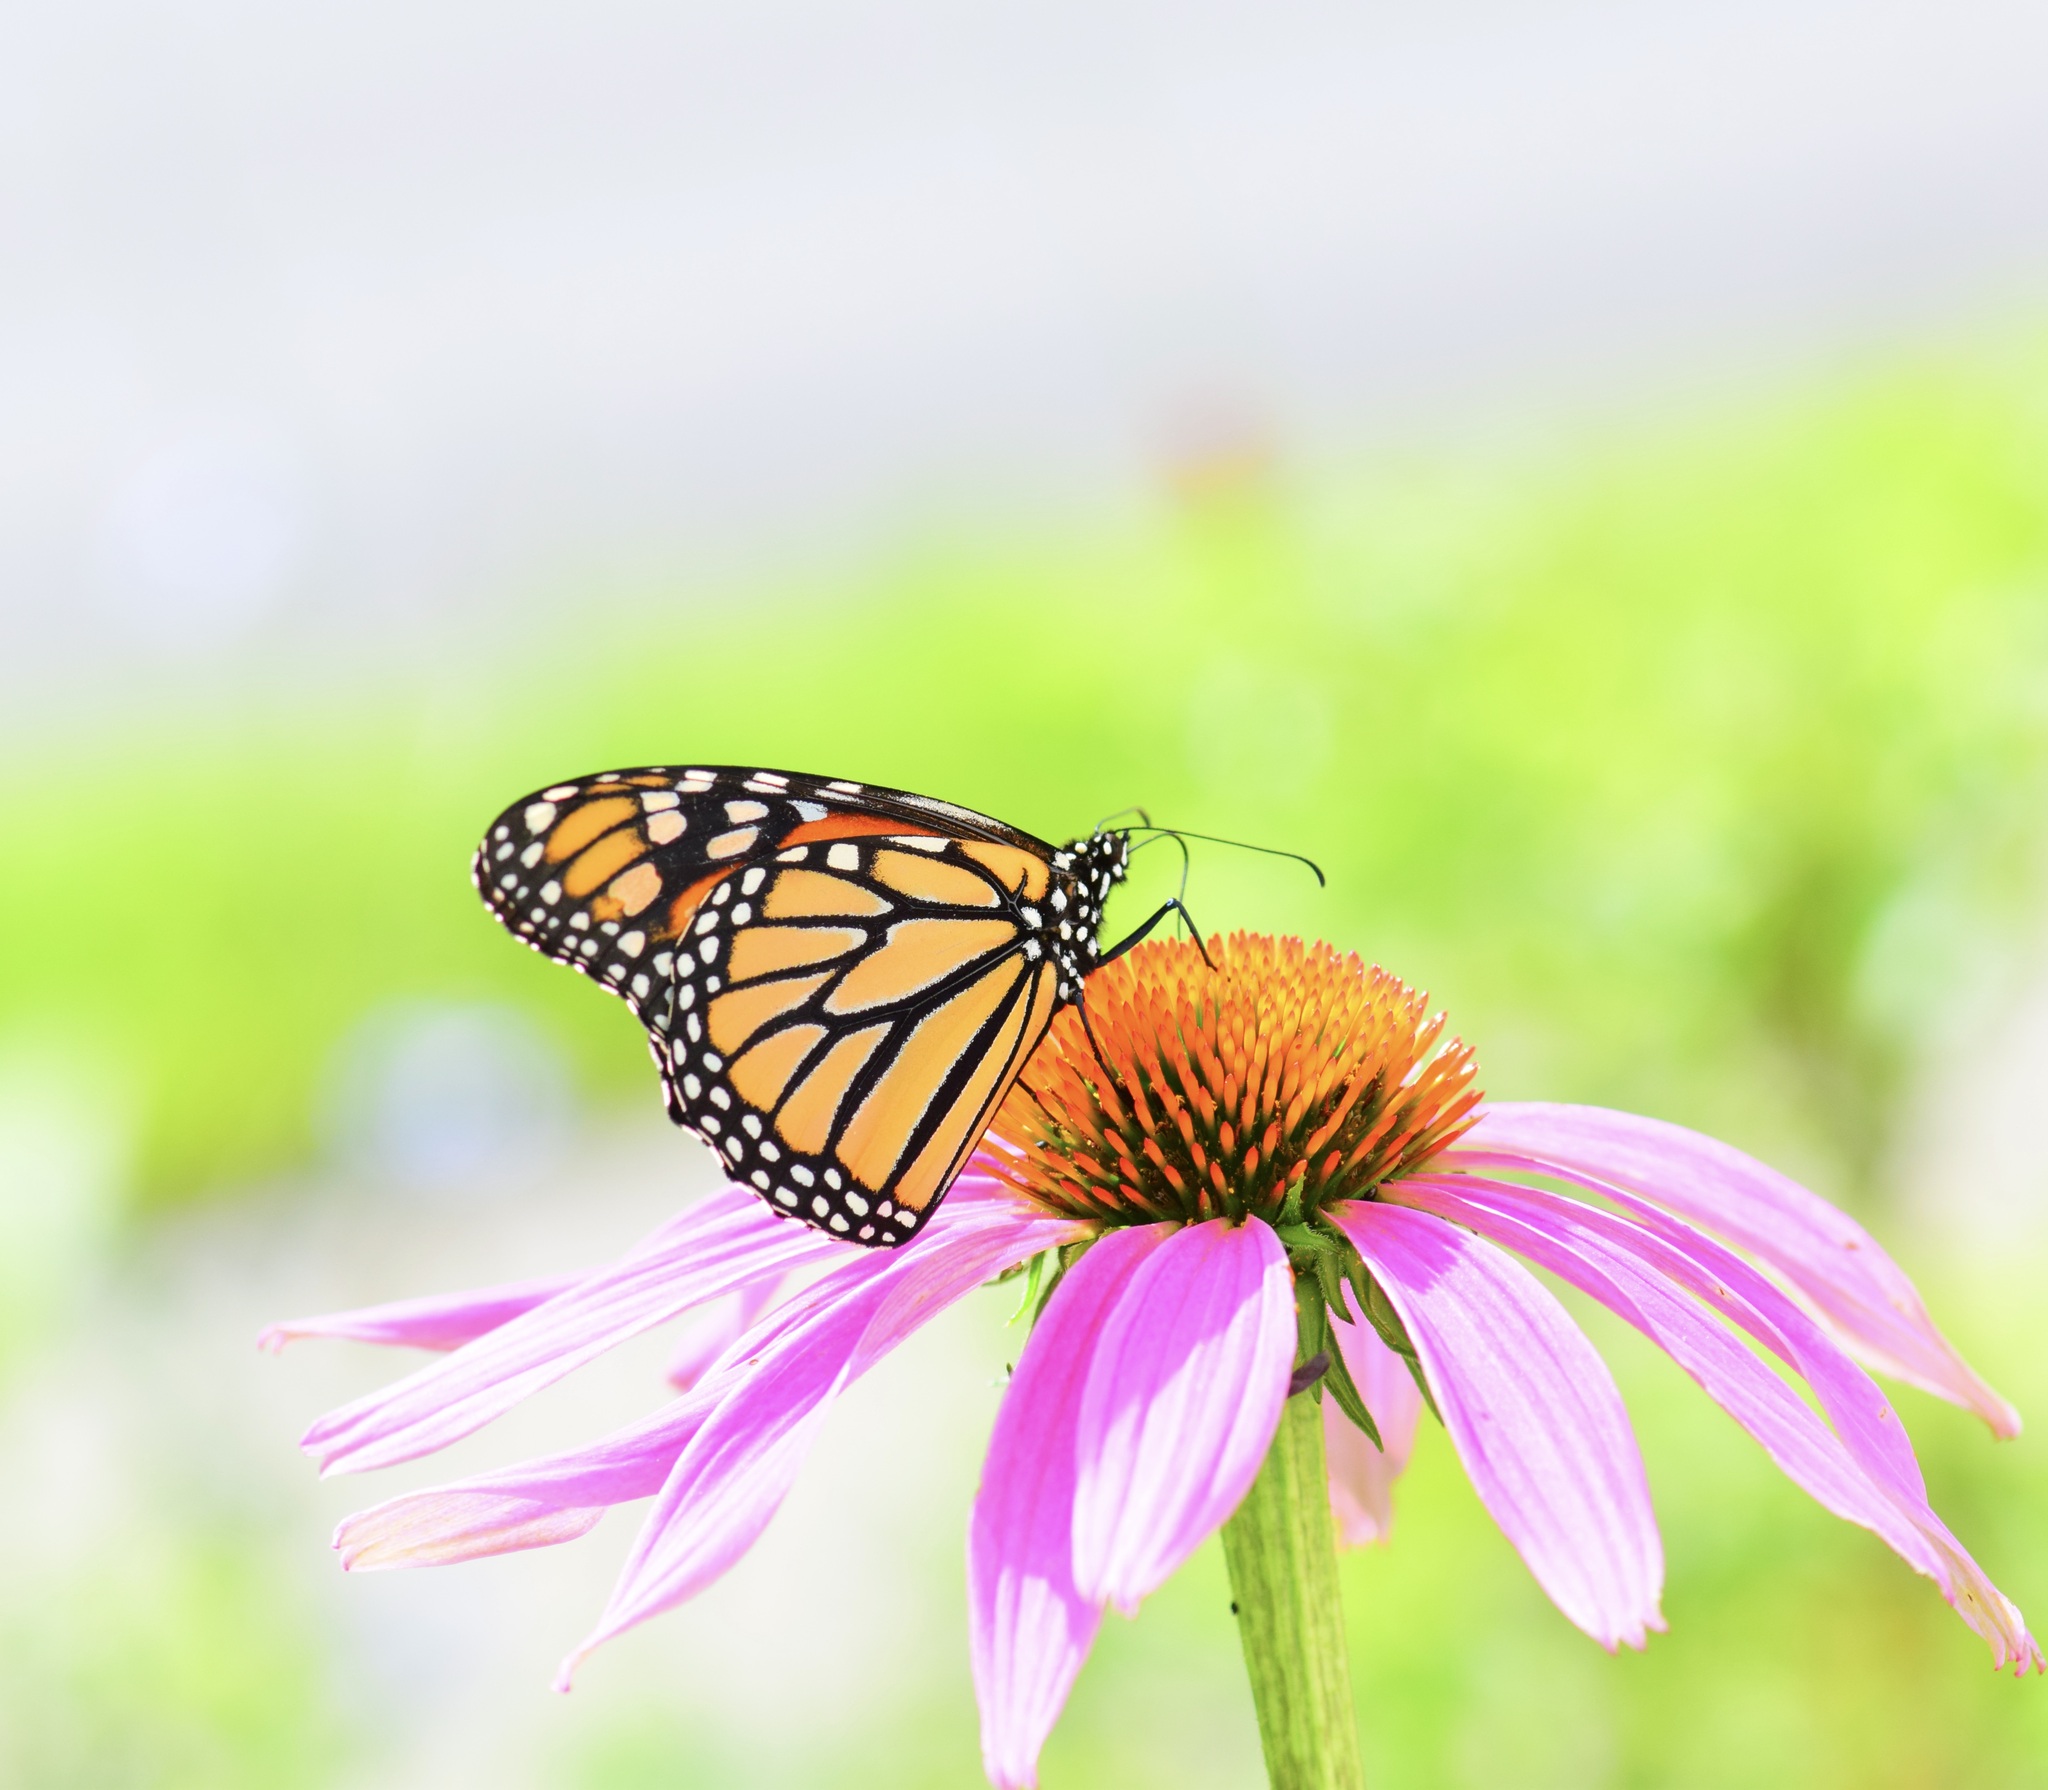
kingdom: Animalia
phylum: Arthropoda
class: Insecta
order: Lepidoptera
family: Nymphalidae
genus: Danaus
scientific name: Danaus plexippus
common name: Monarch
